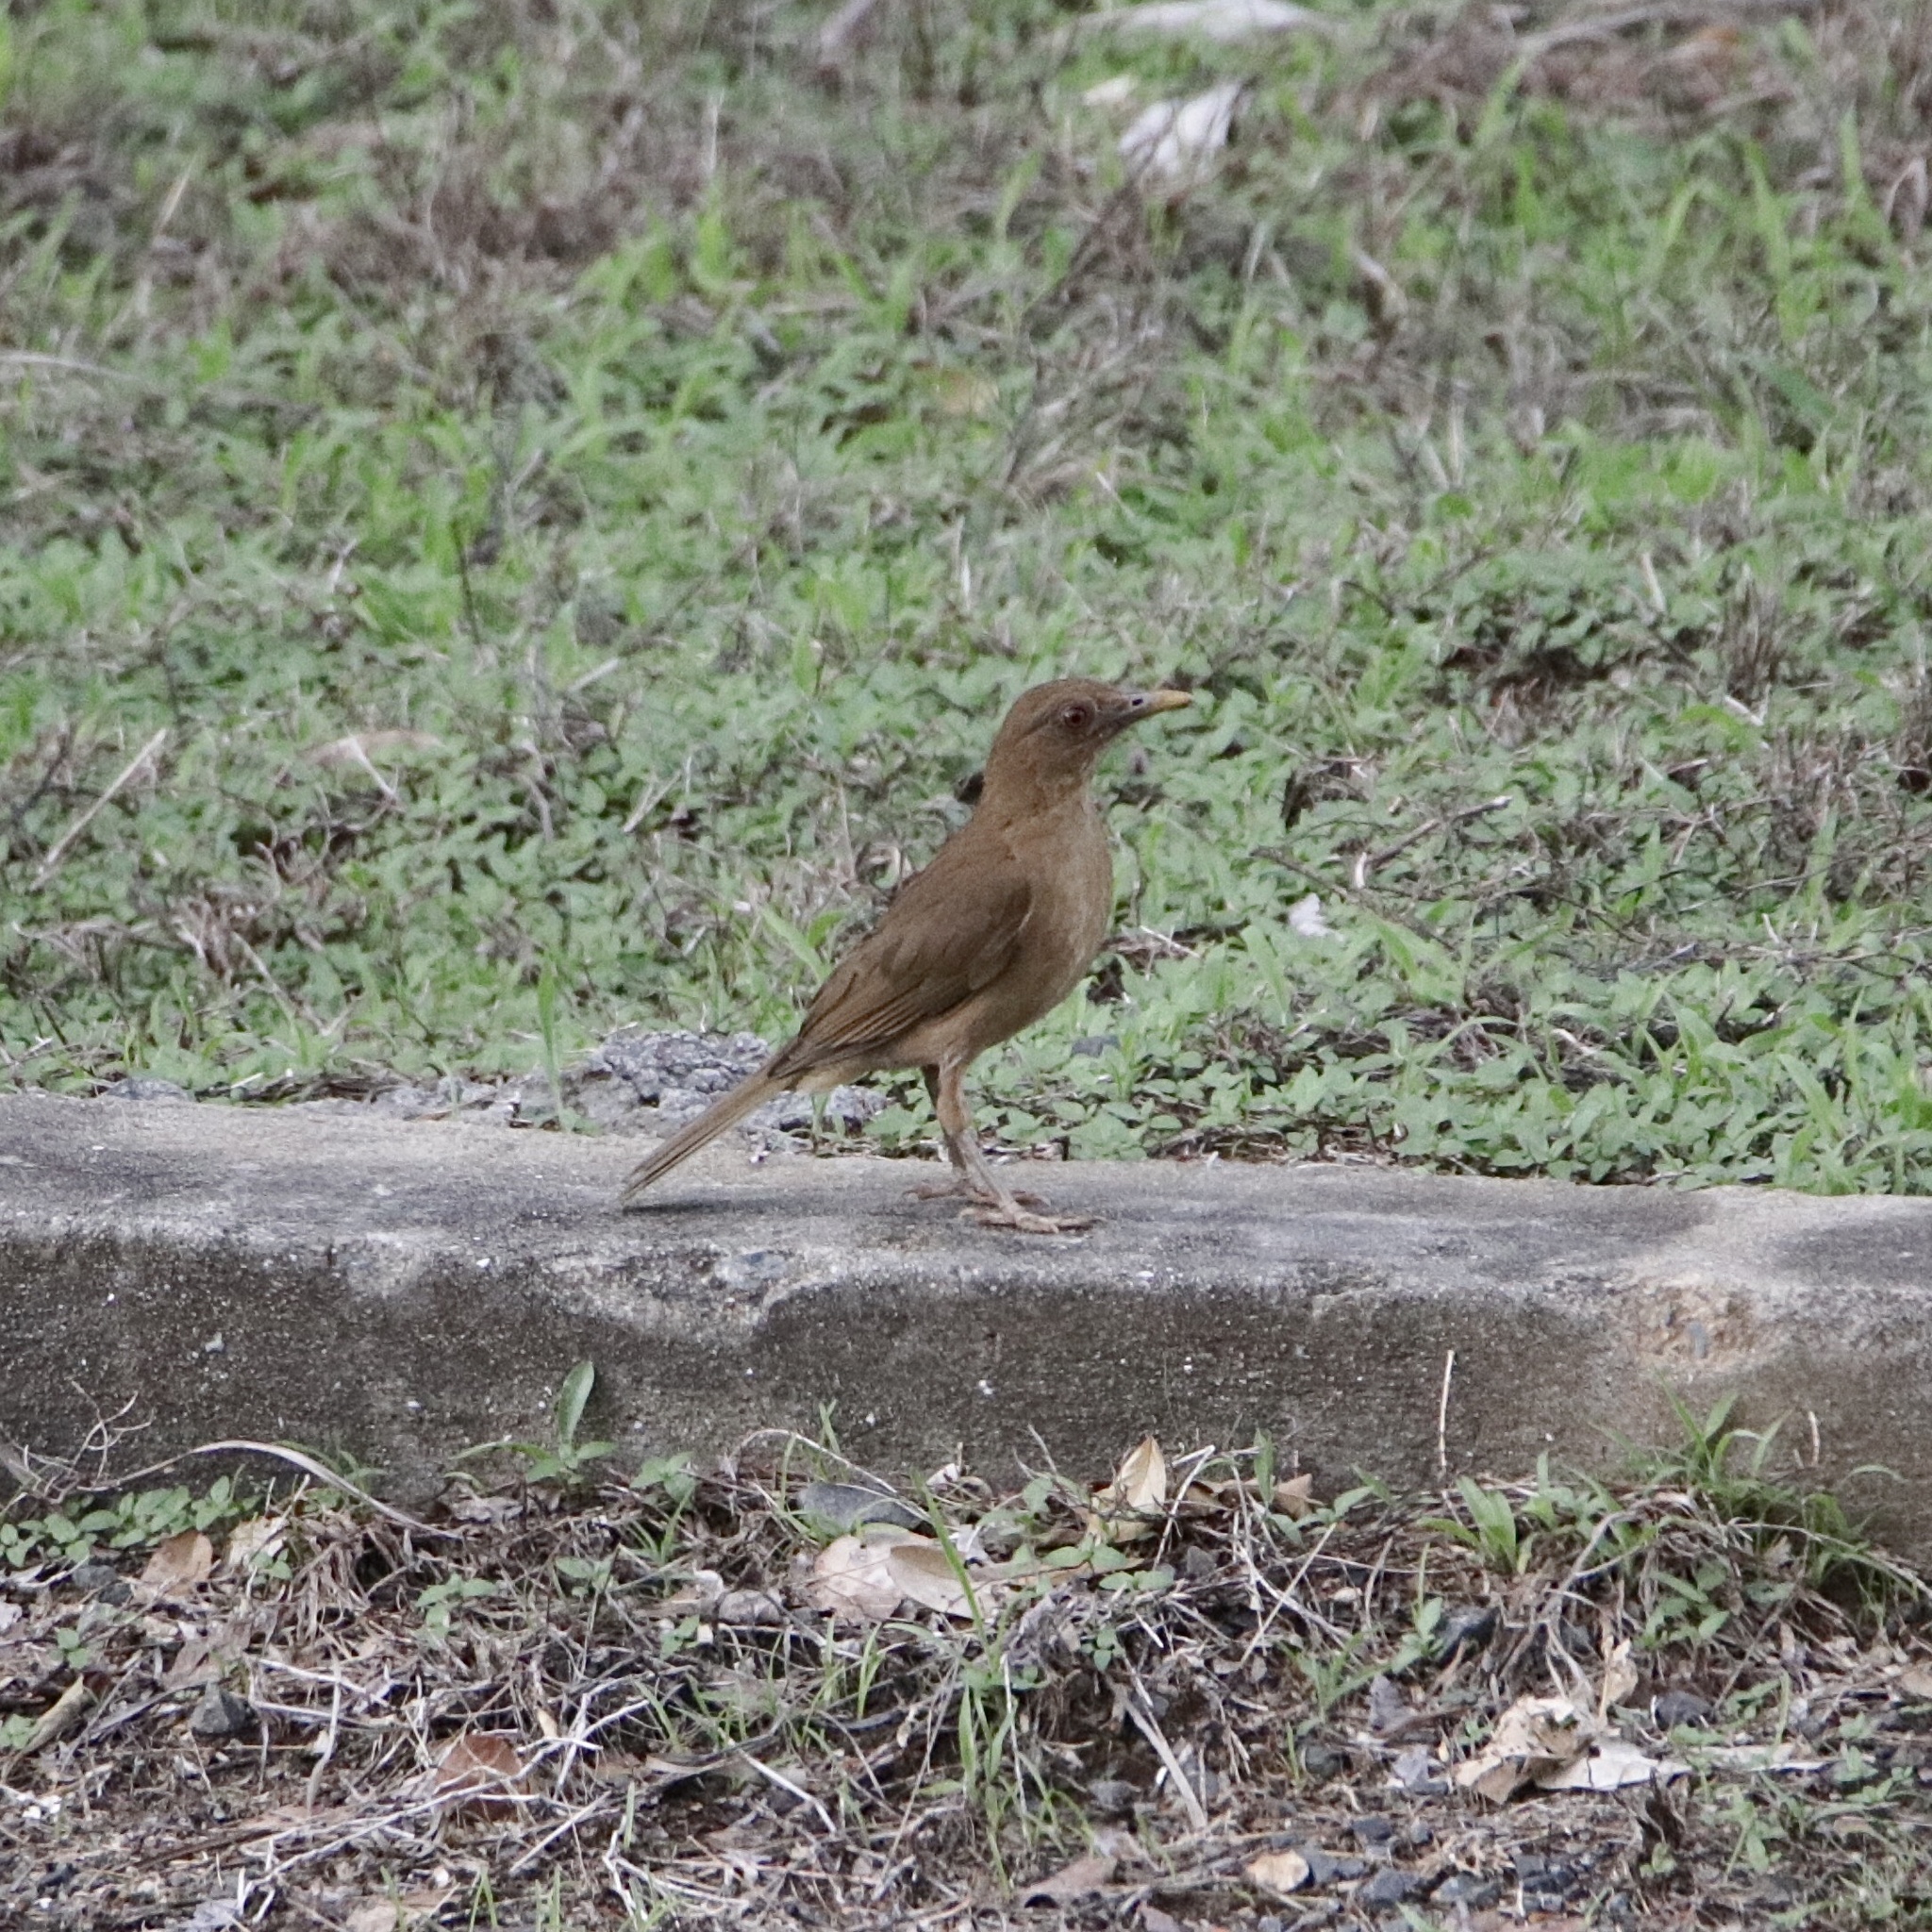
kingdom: Animalia
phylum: Chordata
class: Aves
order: Passeriformes
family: Turdidae
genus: Turdus
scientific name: Turdus grayi
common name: Clay-colored thrush
